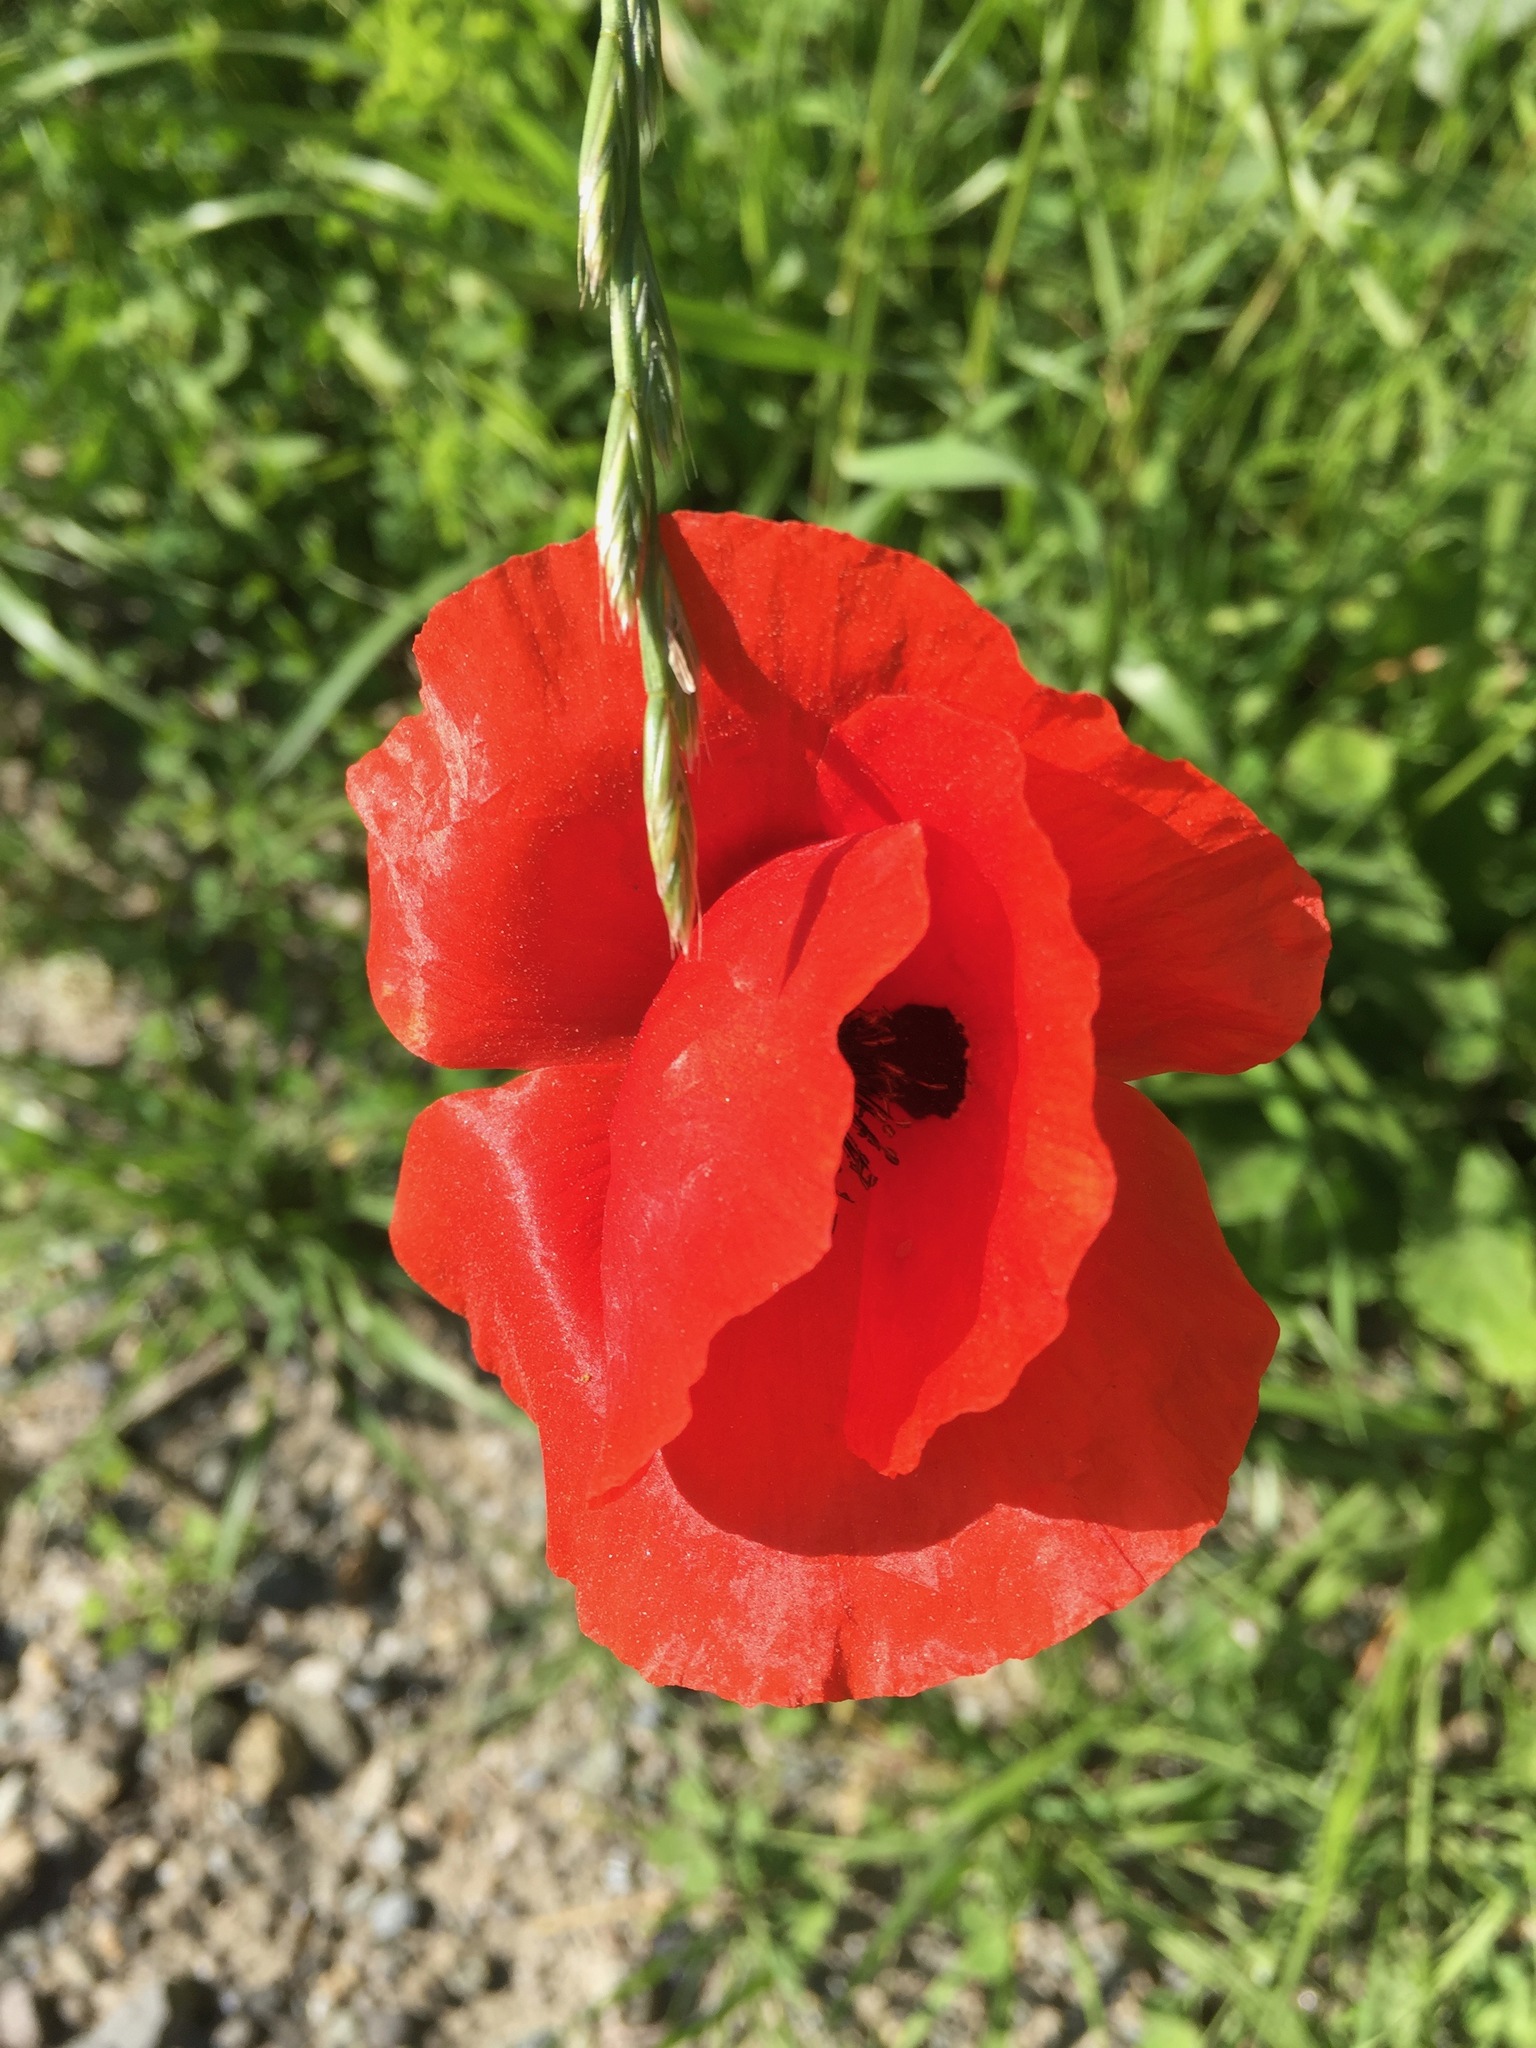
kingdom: Plantae
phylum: Tracheophyta
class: Magnoliopsida
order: Ranunculales
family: Papaveraceae
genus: Papaver
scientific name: Papaver rhoeas
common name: Corn poppy
